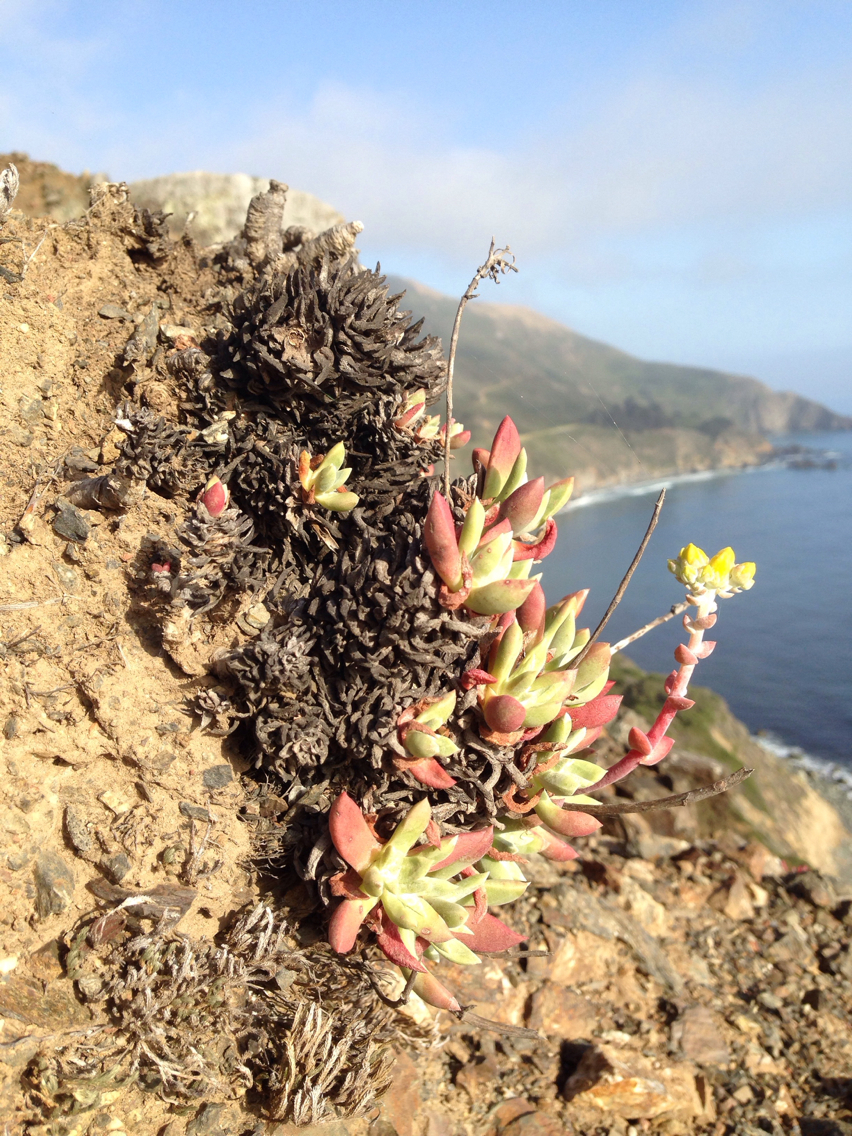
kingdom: Plantae
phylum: Tracheophyta
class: Magnoliopsida
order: Saxifragales
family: Crassulaceae
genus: Dudleya
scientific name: Dudleya caespitosa
